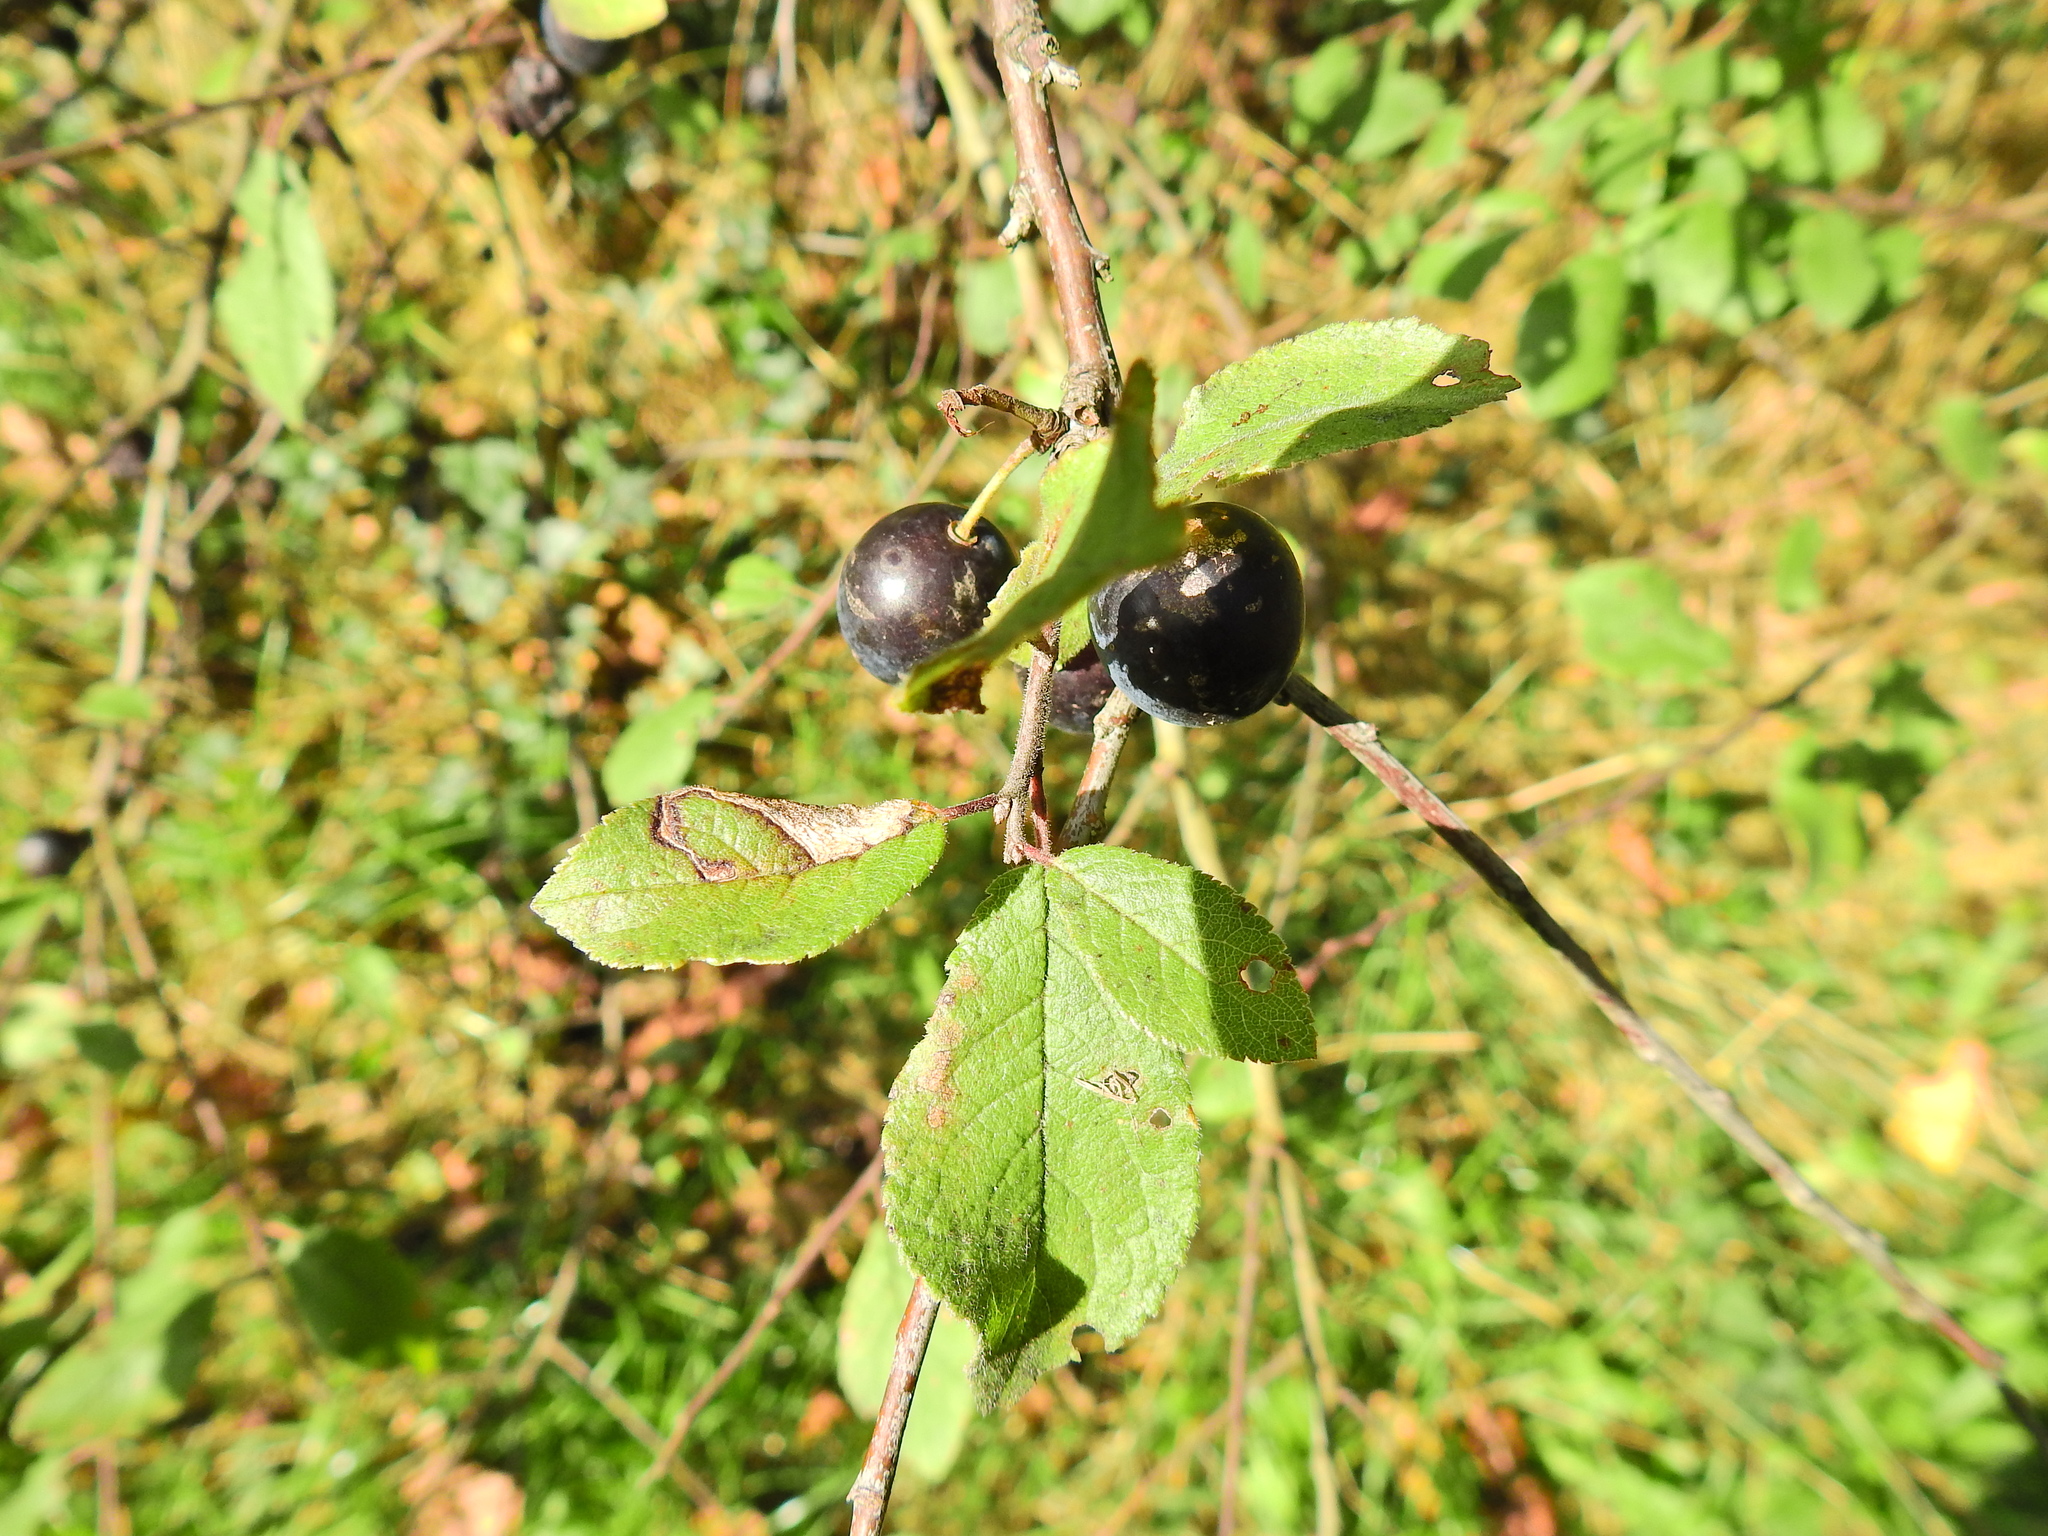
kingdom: Plantae
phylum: Tracheophyta
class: Magnoliopsida
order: Rosales
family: Rosaceae
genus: Prunus
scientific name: Prunus spinosa
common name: Blackthorn
